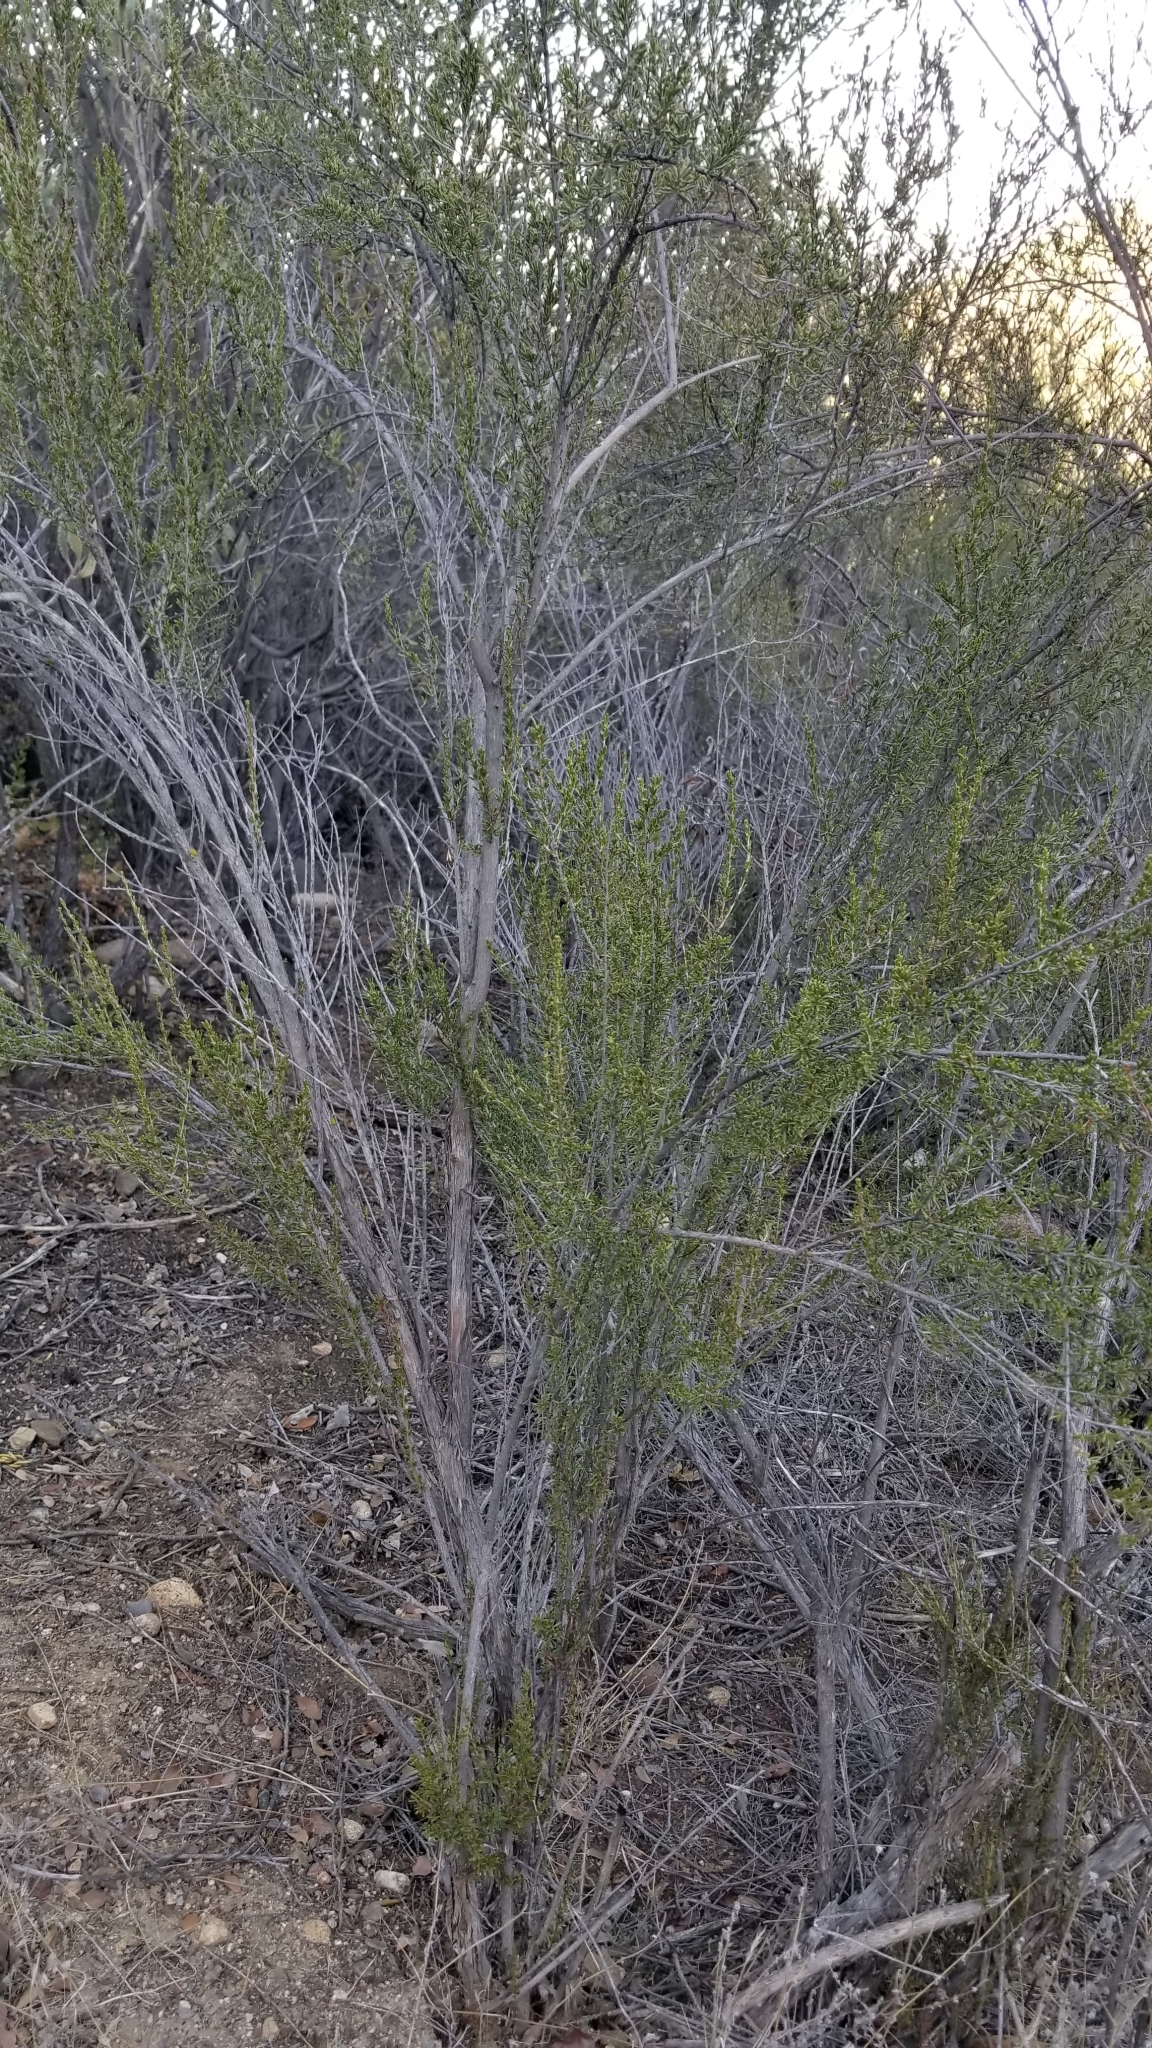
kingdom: Plantae
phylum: Tracheophyta
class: Magnoliopsida
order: Rosales
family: Rosaceae
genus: Adenostoma
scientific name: Adenostoma fasciculatum
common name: Chamise
